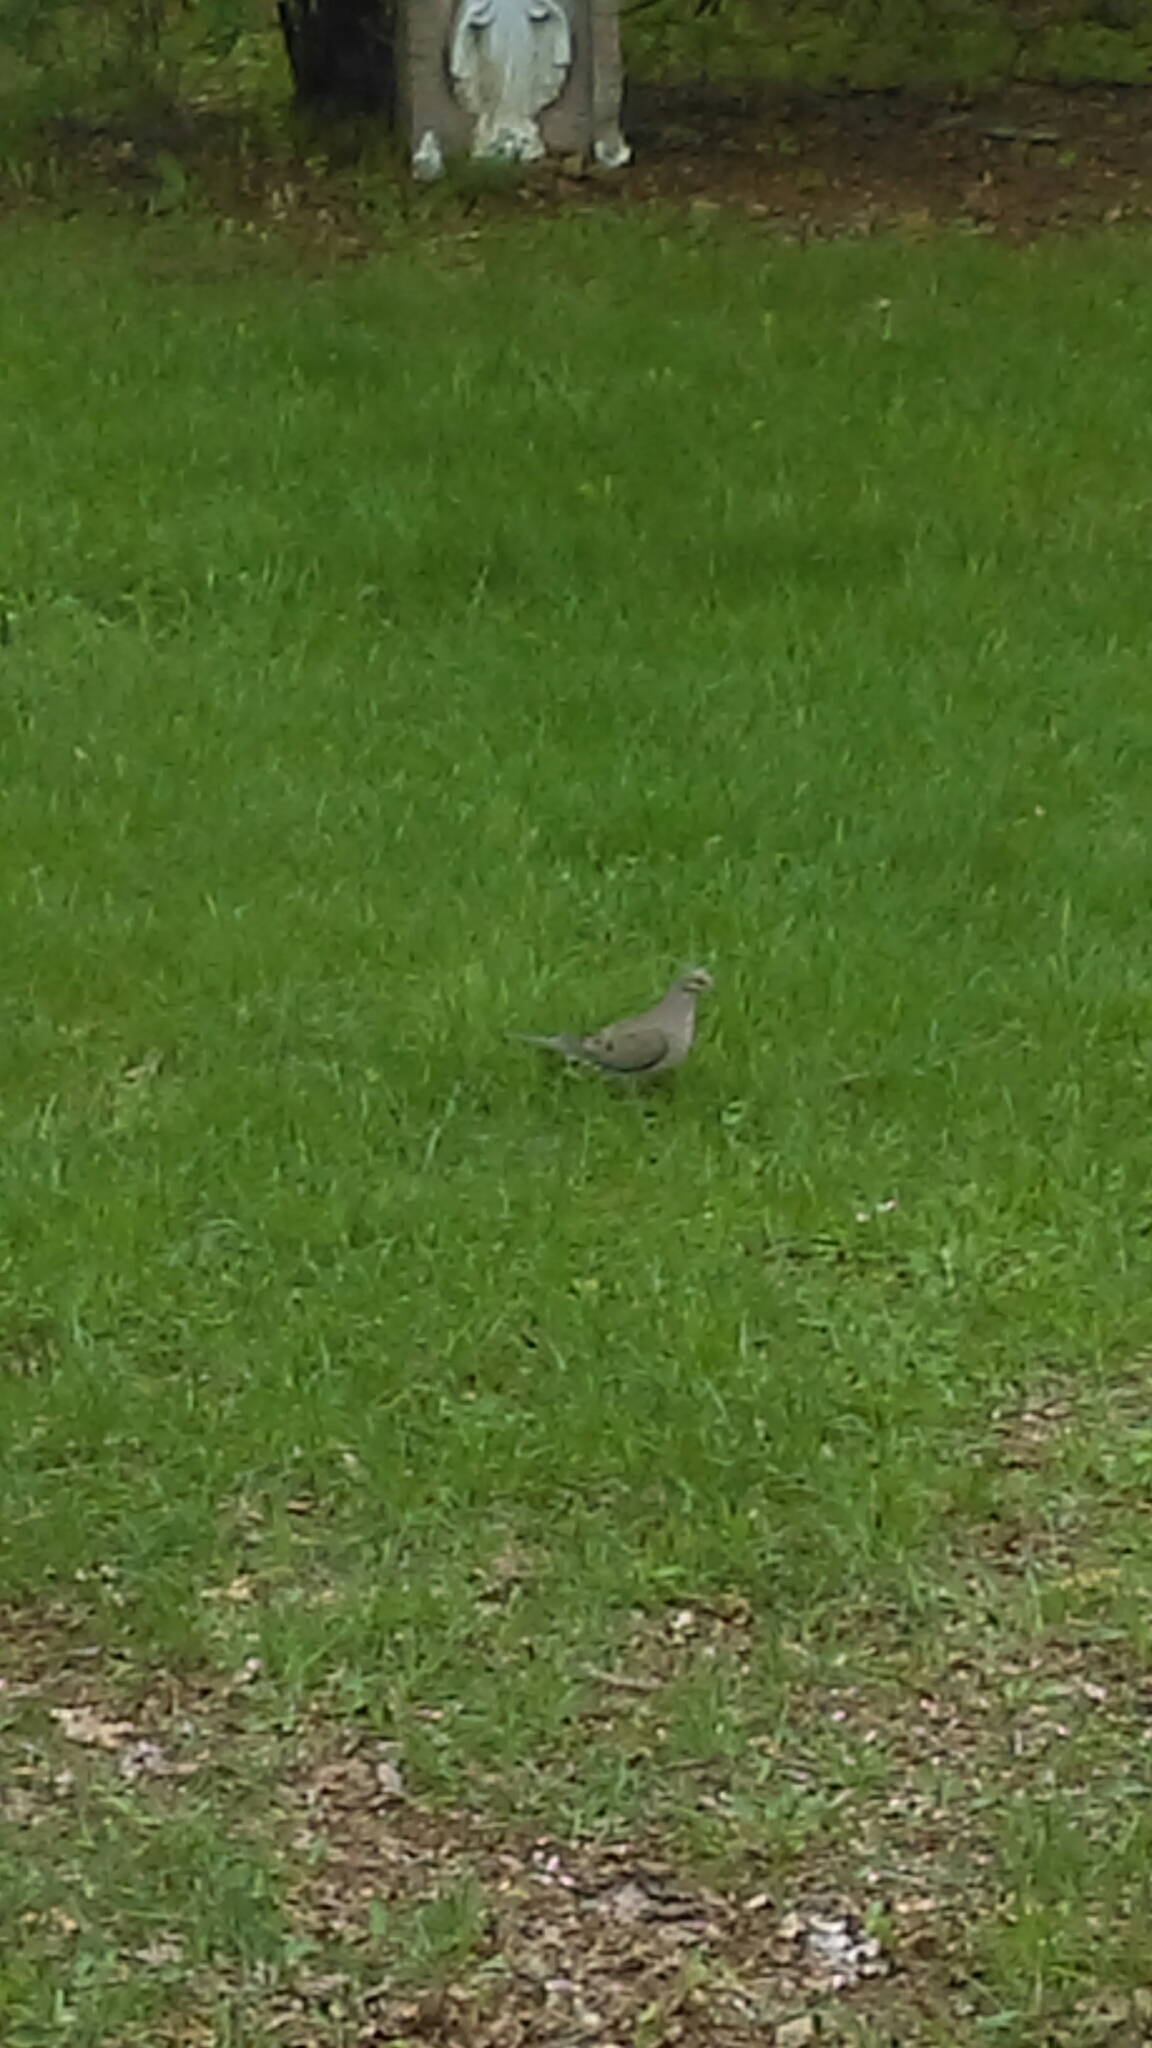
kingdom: Animalia
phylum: Chordata
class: Aves
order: Columbiformes
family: Columbidae
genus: Zenaida
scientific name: Zenaida macroura
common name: Mourning dove
